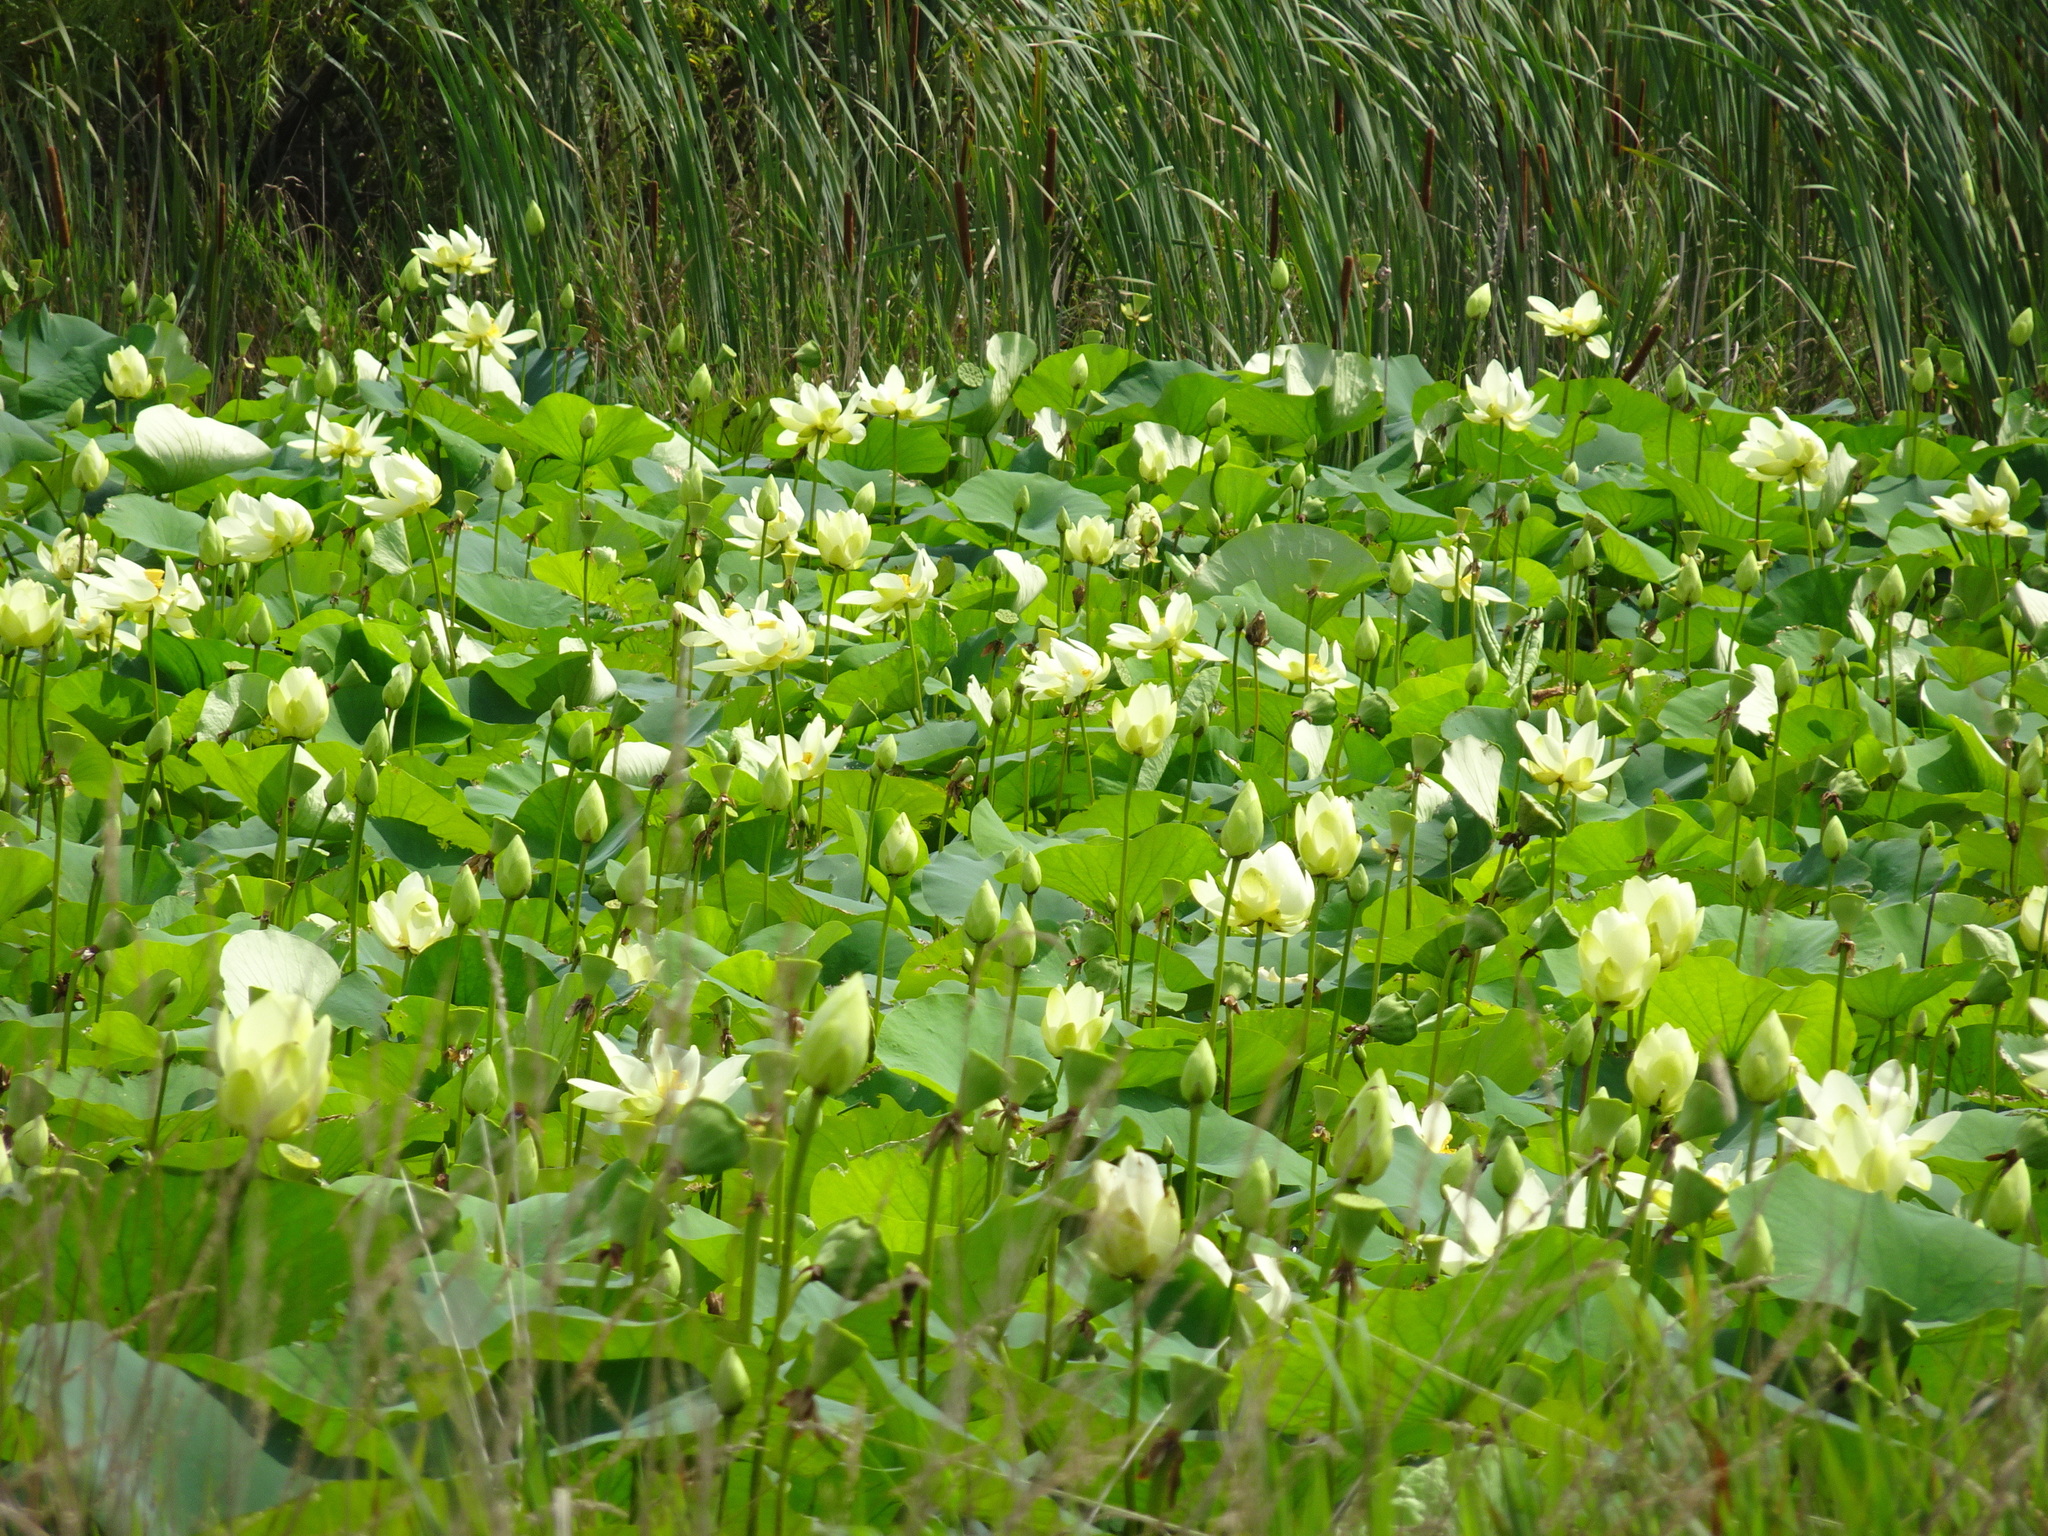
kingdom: Plantae
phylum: Tracheophyta
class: Magnoliopsida
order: Proteales
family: Nelumbonaceae
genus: Nelumbo
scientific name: Nelumbo lutea
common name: American lotus
